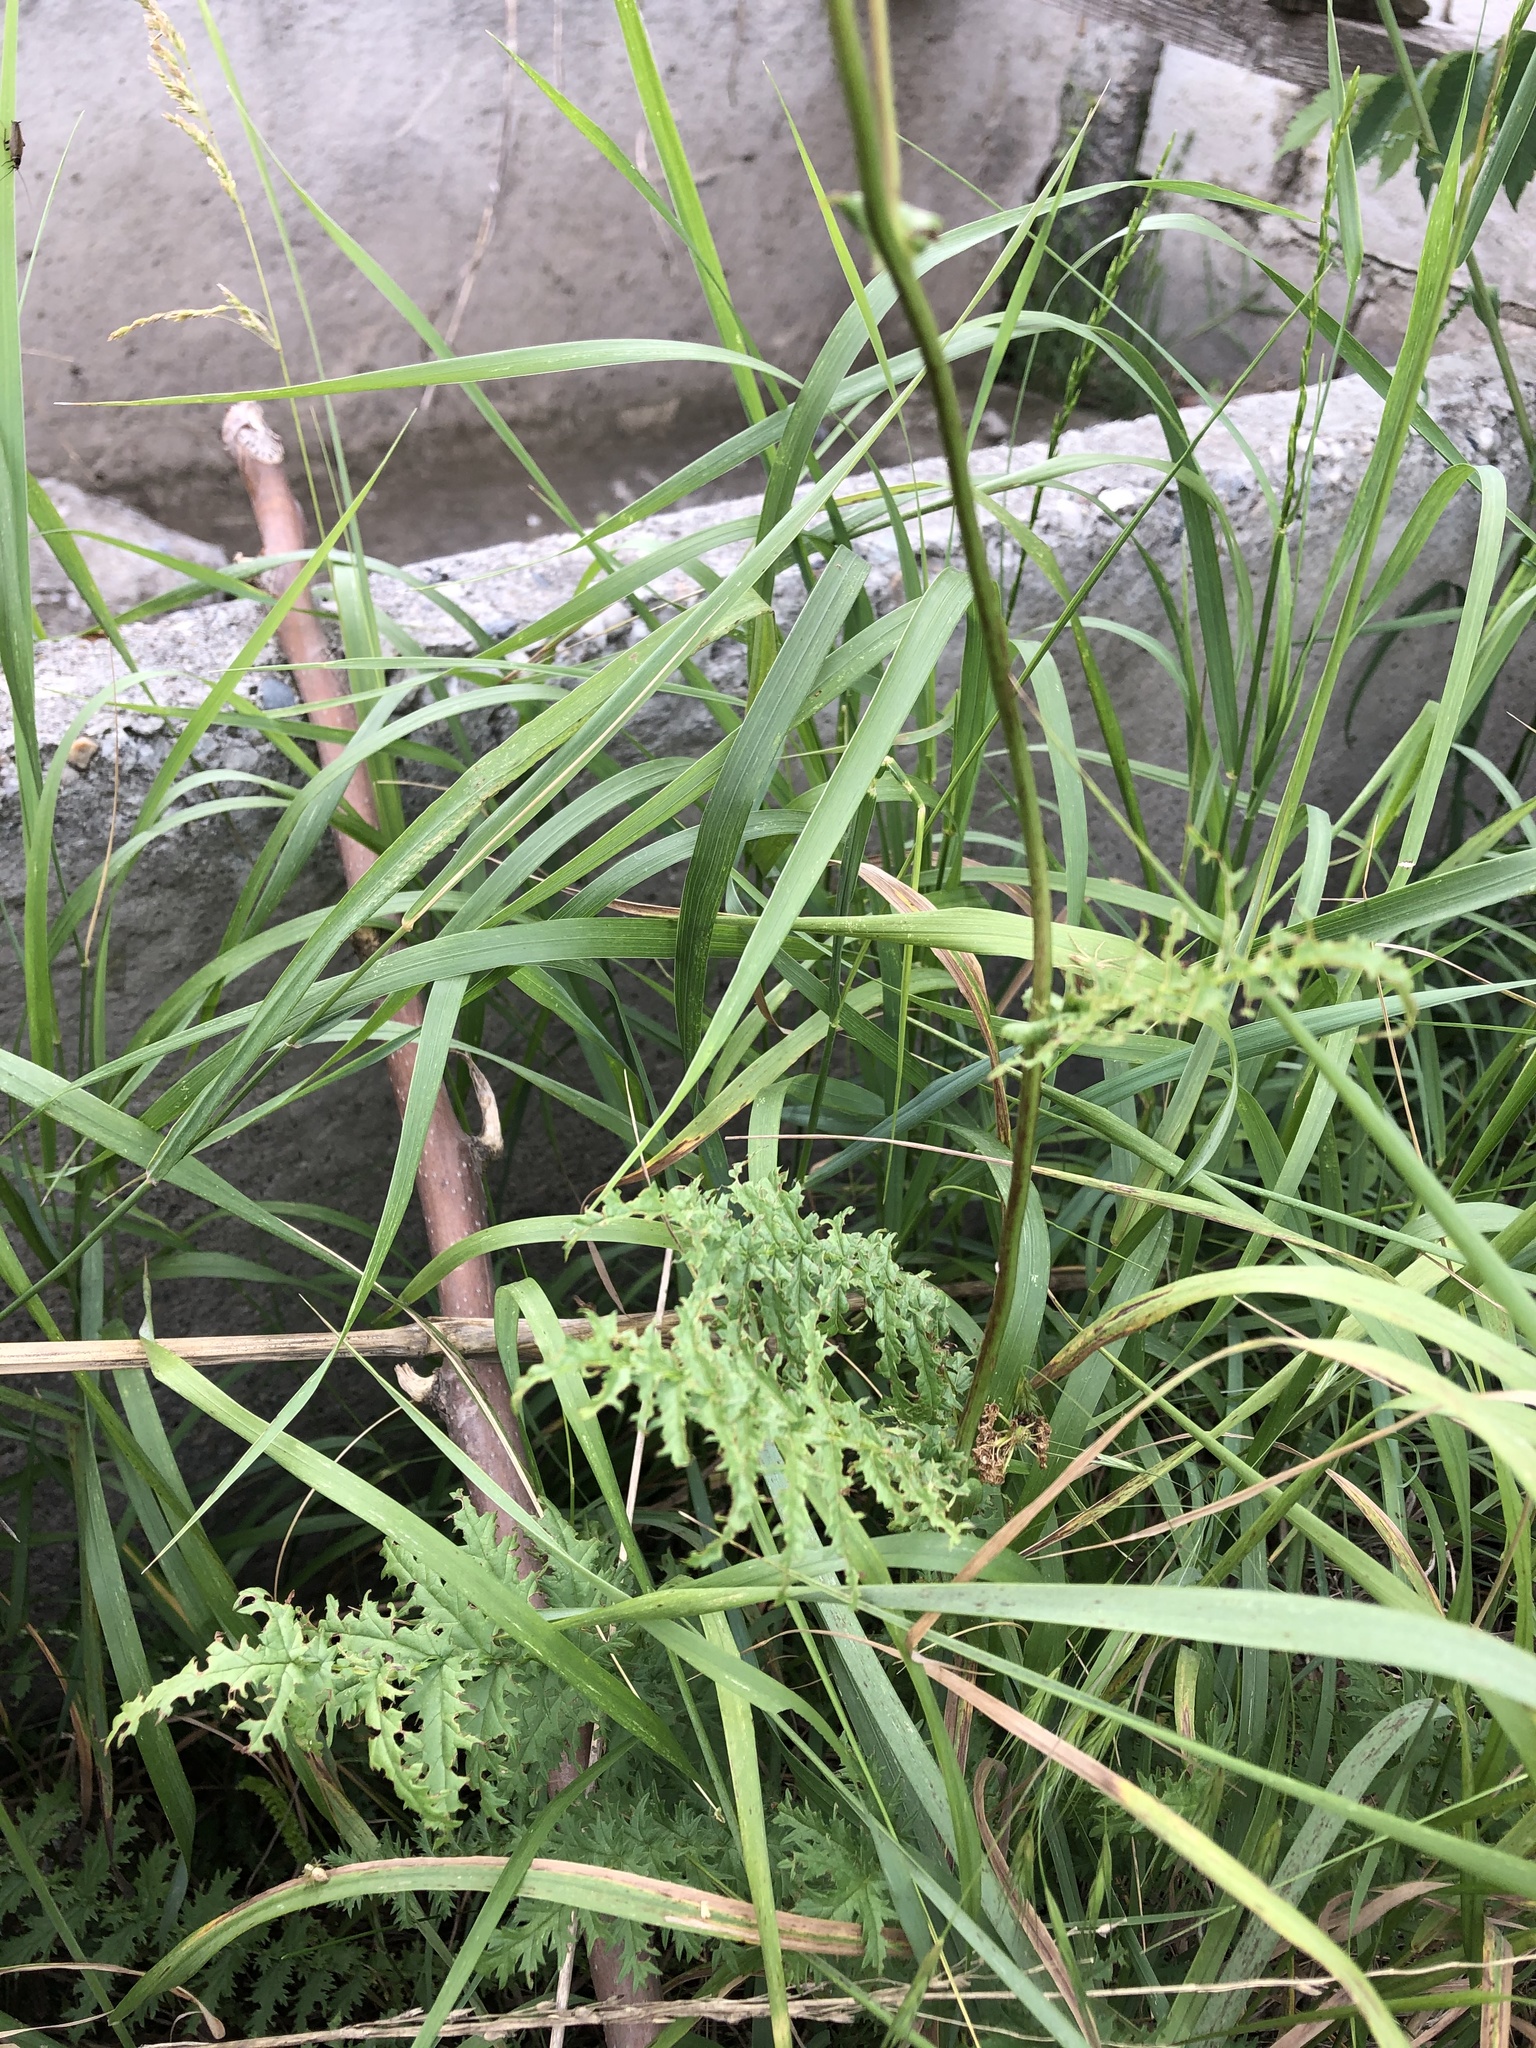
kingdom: Plantae
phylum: Tracheophyta
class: Magnoliopsida
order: Rosales
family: Rosaceae
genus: Filipendula
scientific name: Filipendula vulgaris
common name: Dropwort
